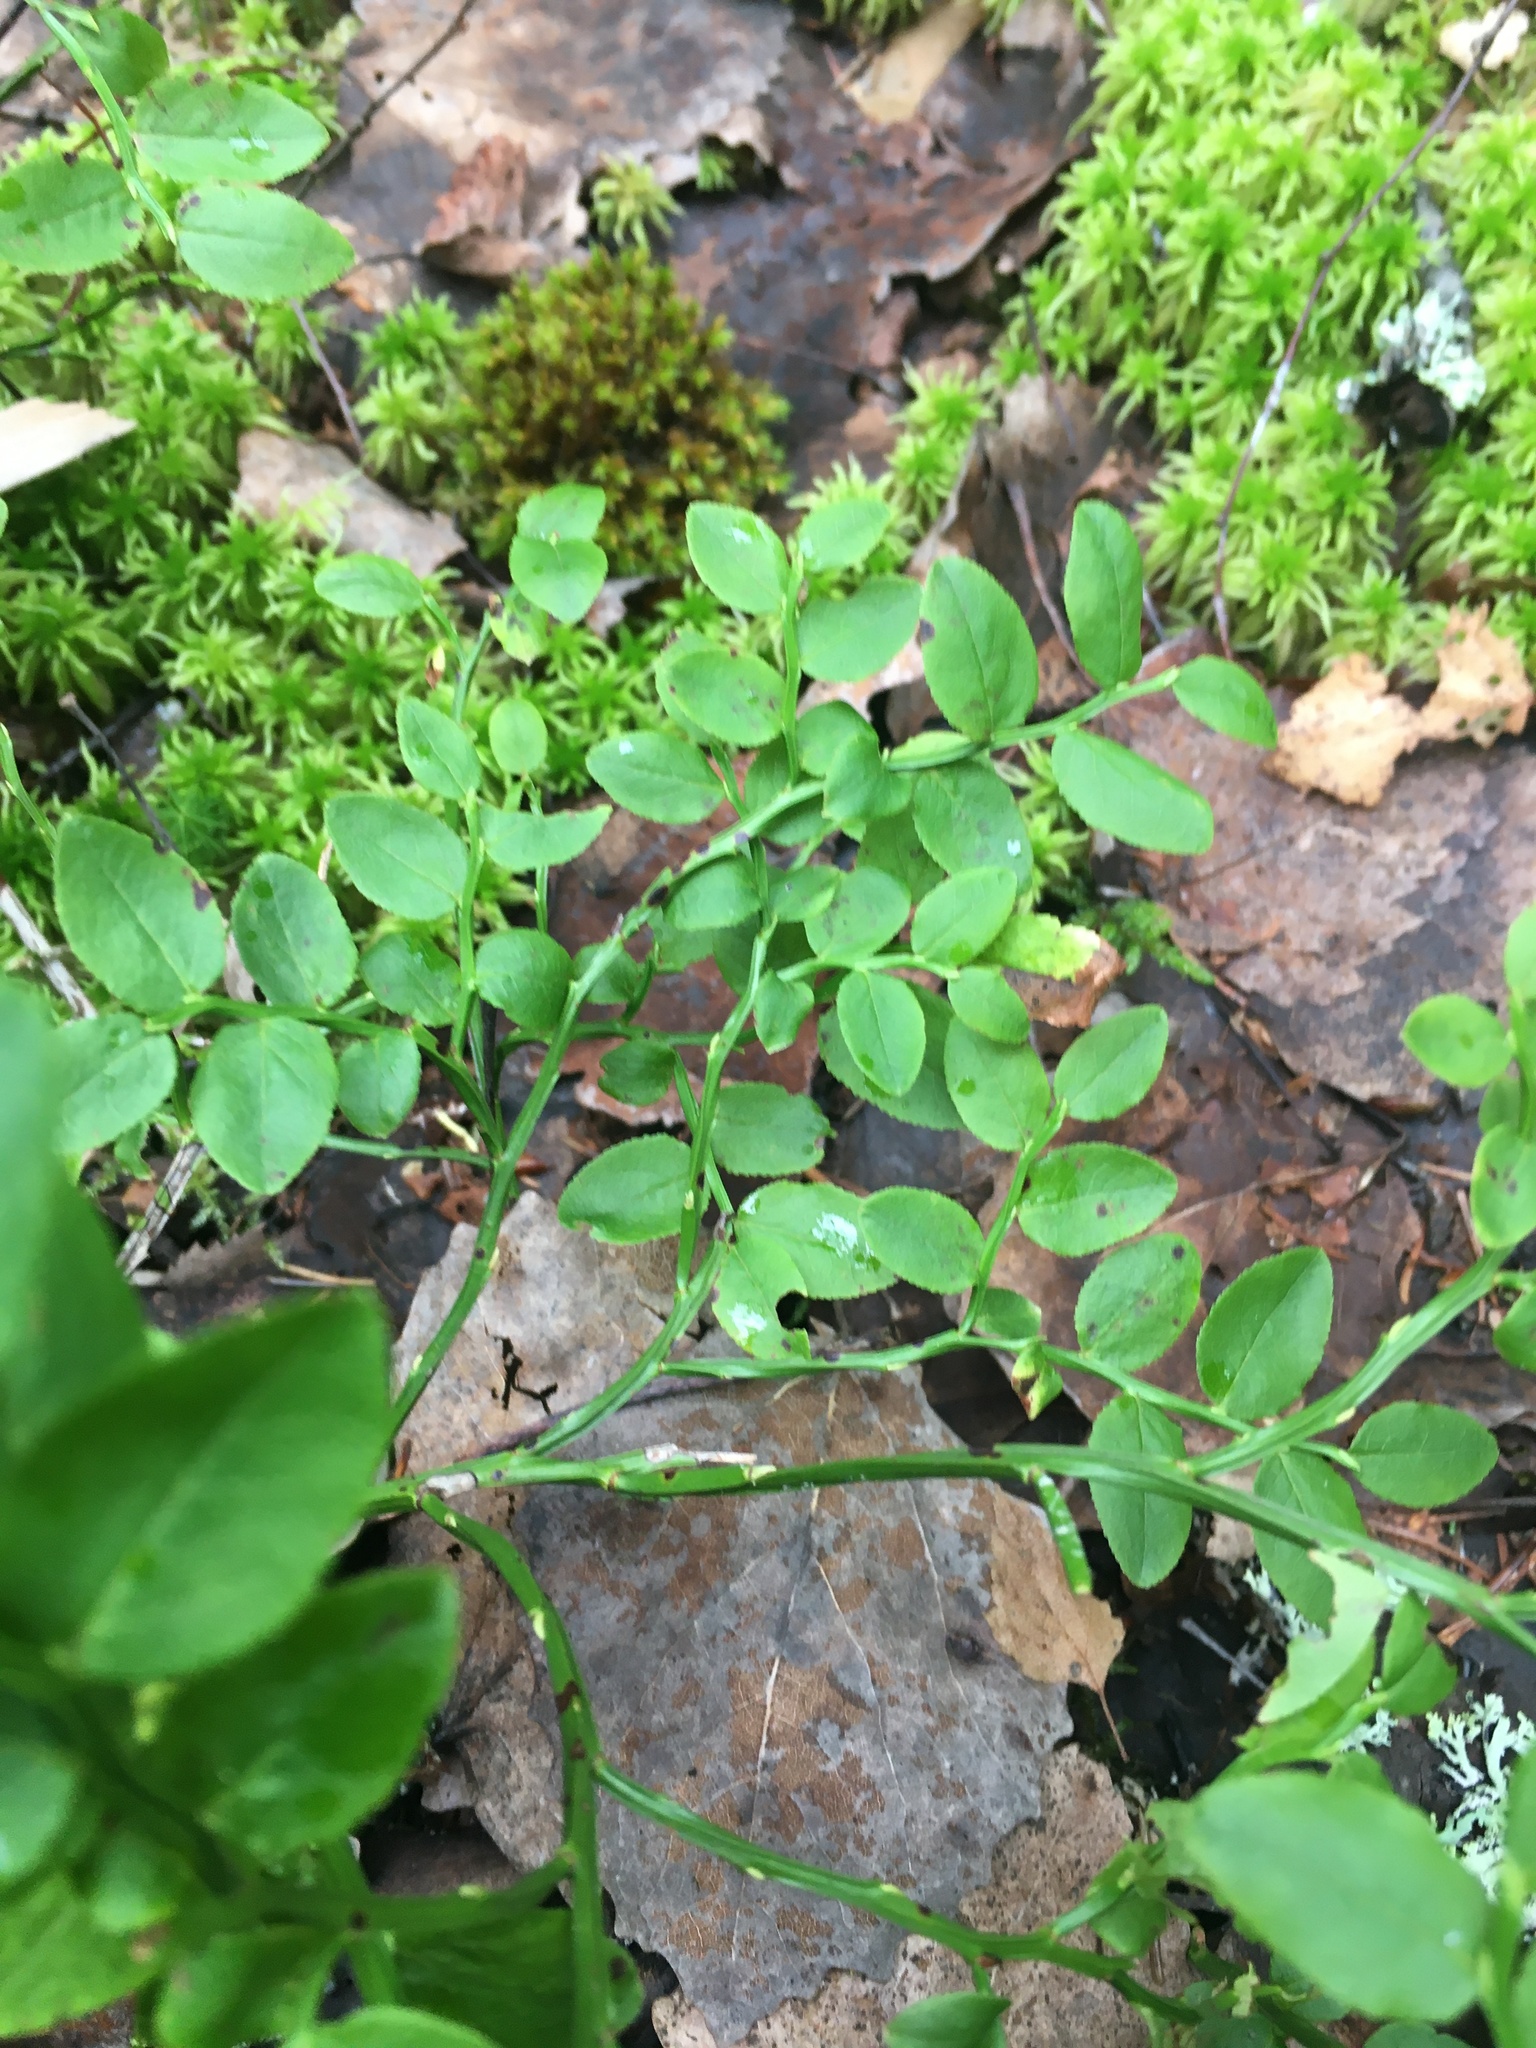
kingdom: Plantae
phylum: Tracheophyta
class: Magnoliopsida
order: Ericales
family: Ericaceae
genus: Vaccinium
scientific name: Vaccinium myrtillus
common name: Bilberry
